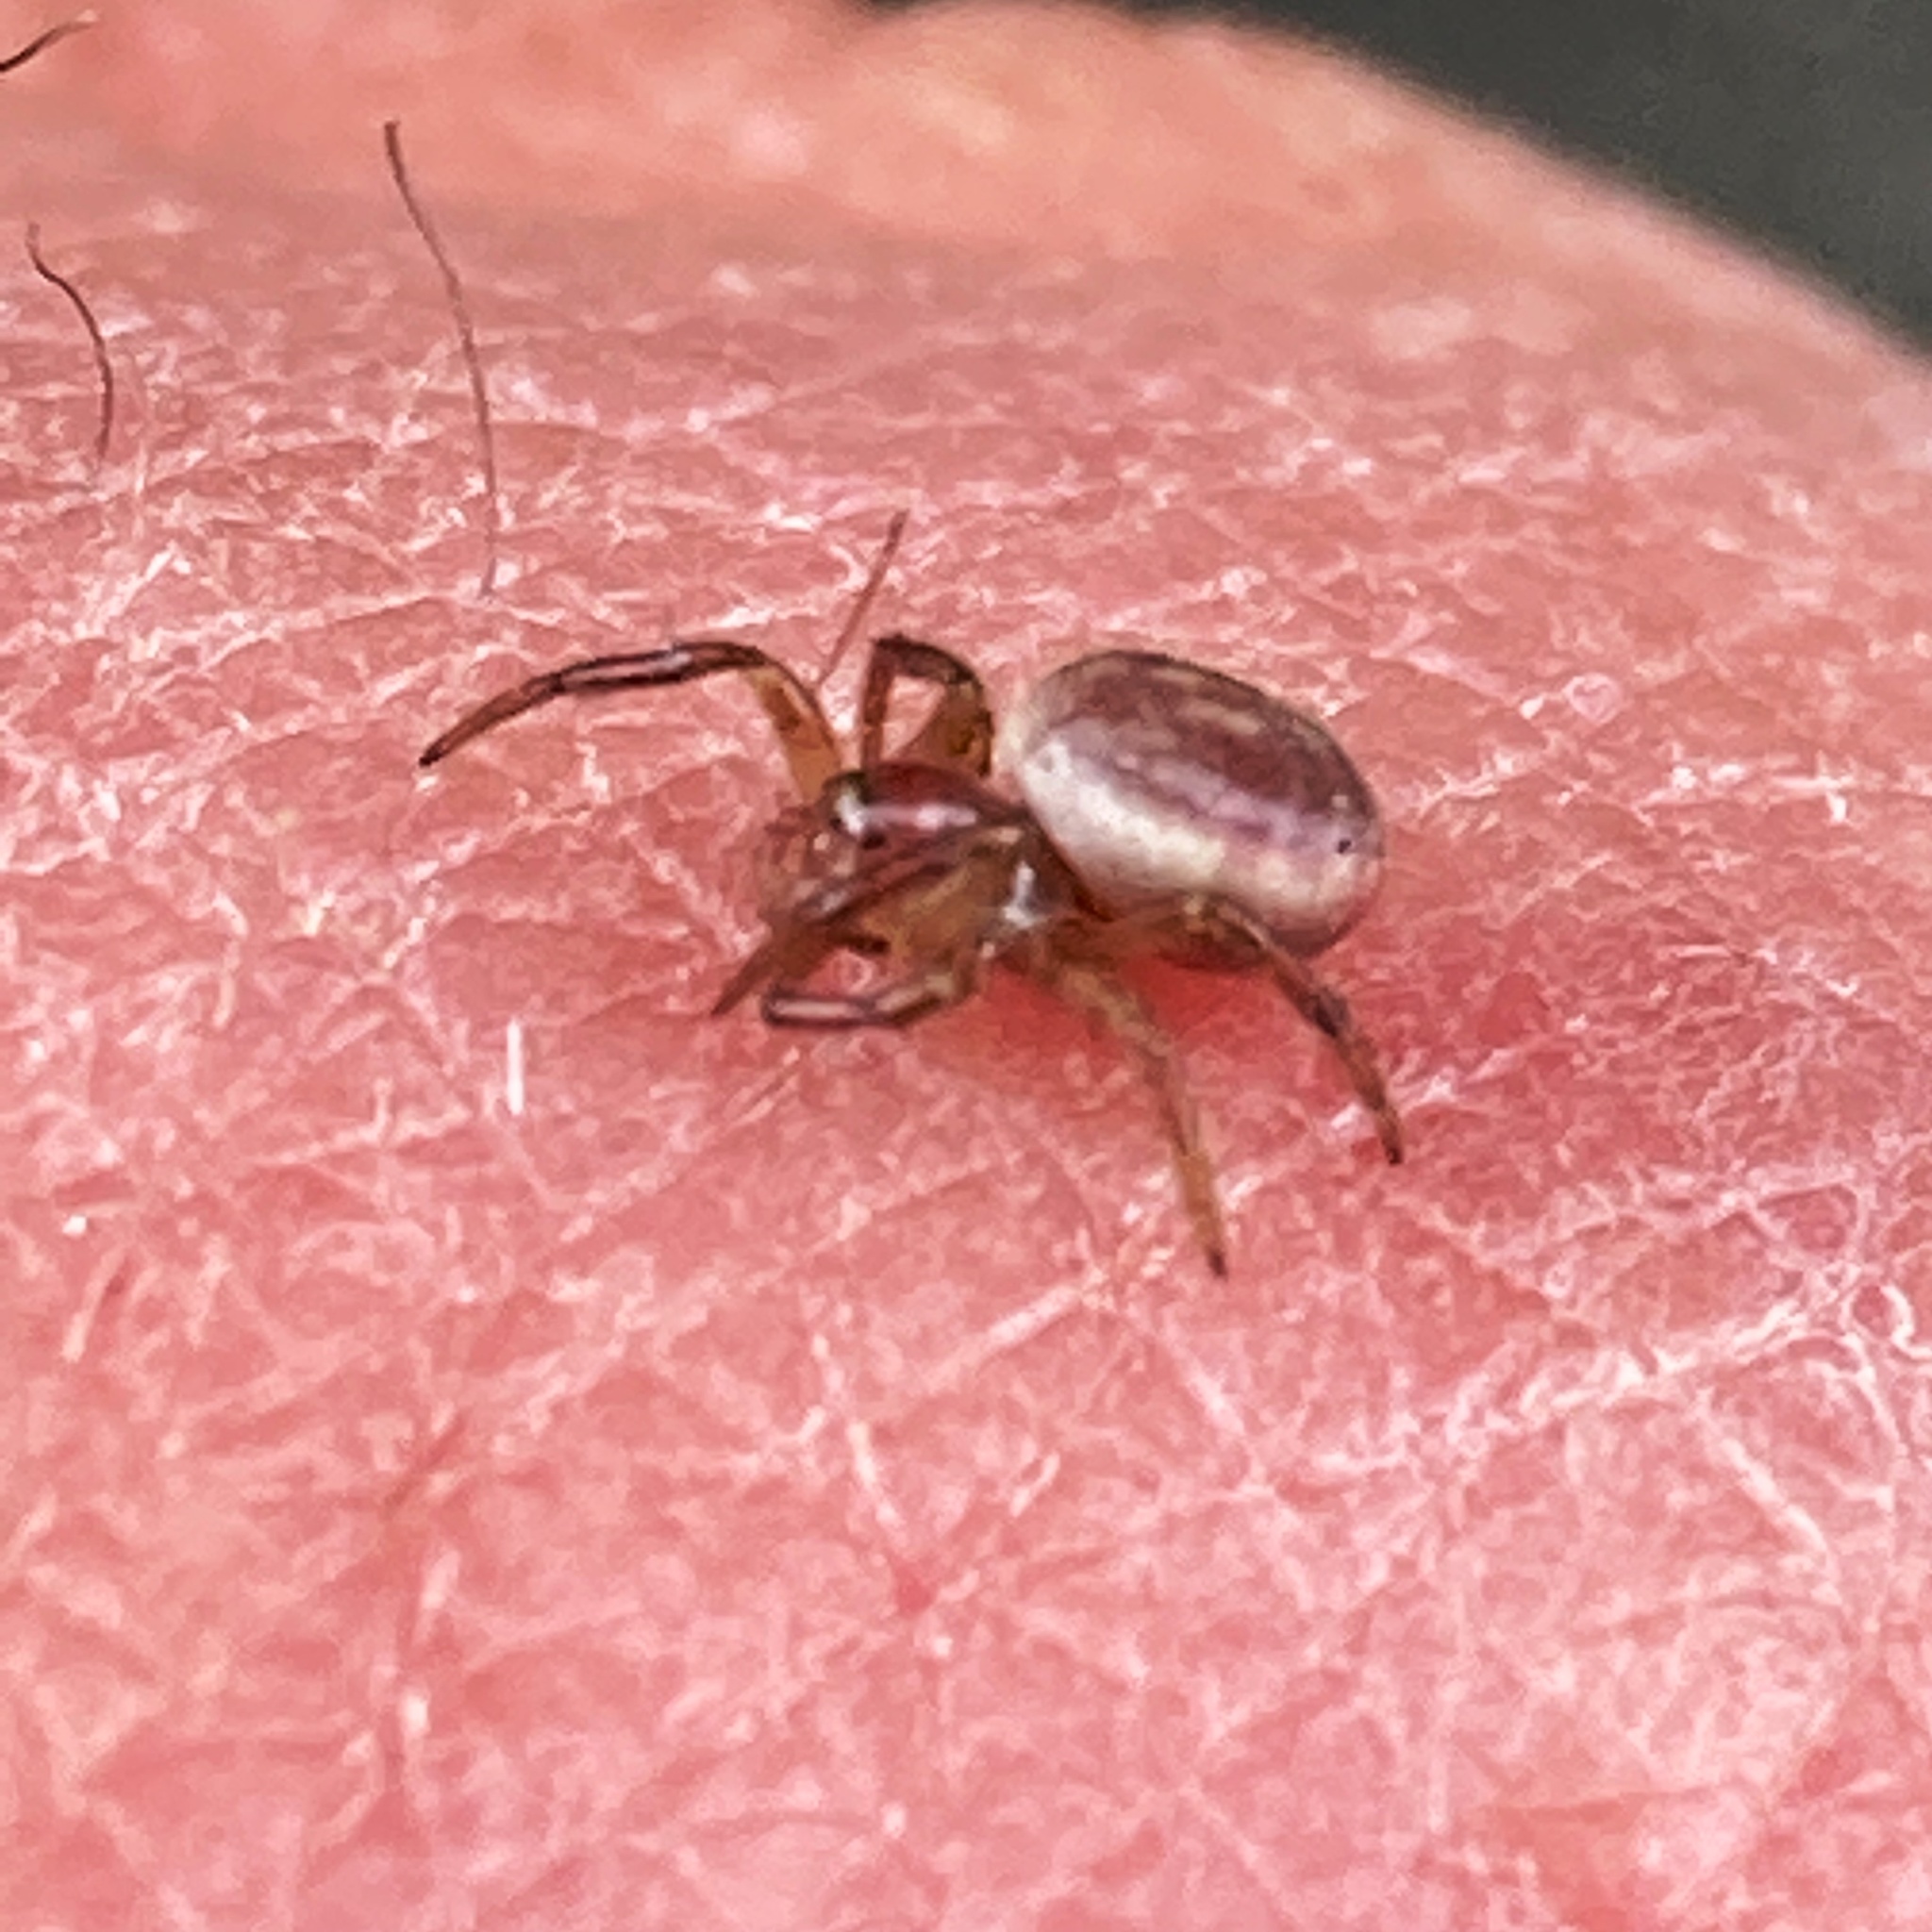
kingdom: Animalia
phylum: Arthropoda
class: Arachnida
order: Araneae
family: Araneidae
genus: Araniella
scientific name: Araniella displicata
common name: Sixspotted orb weaver
